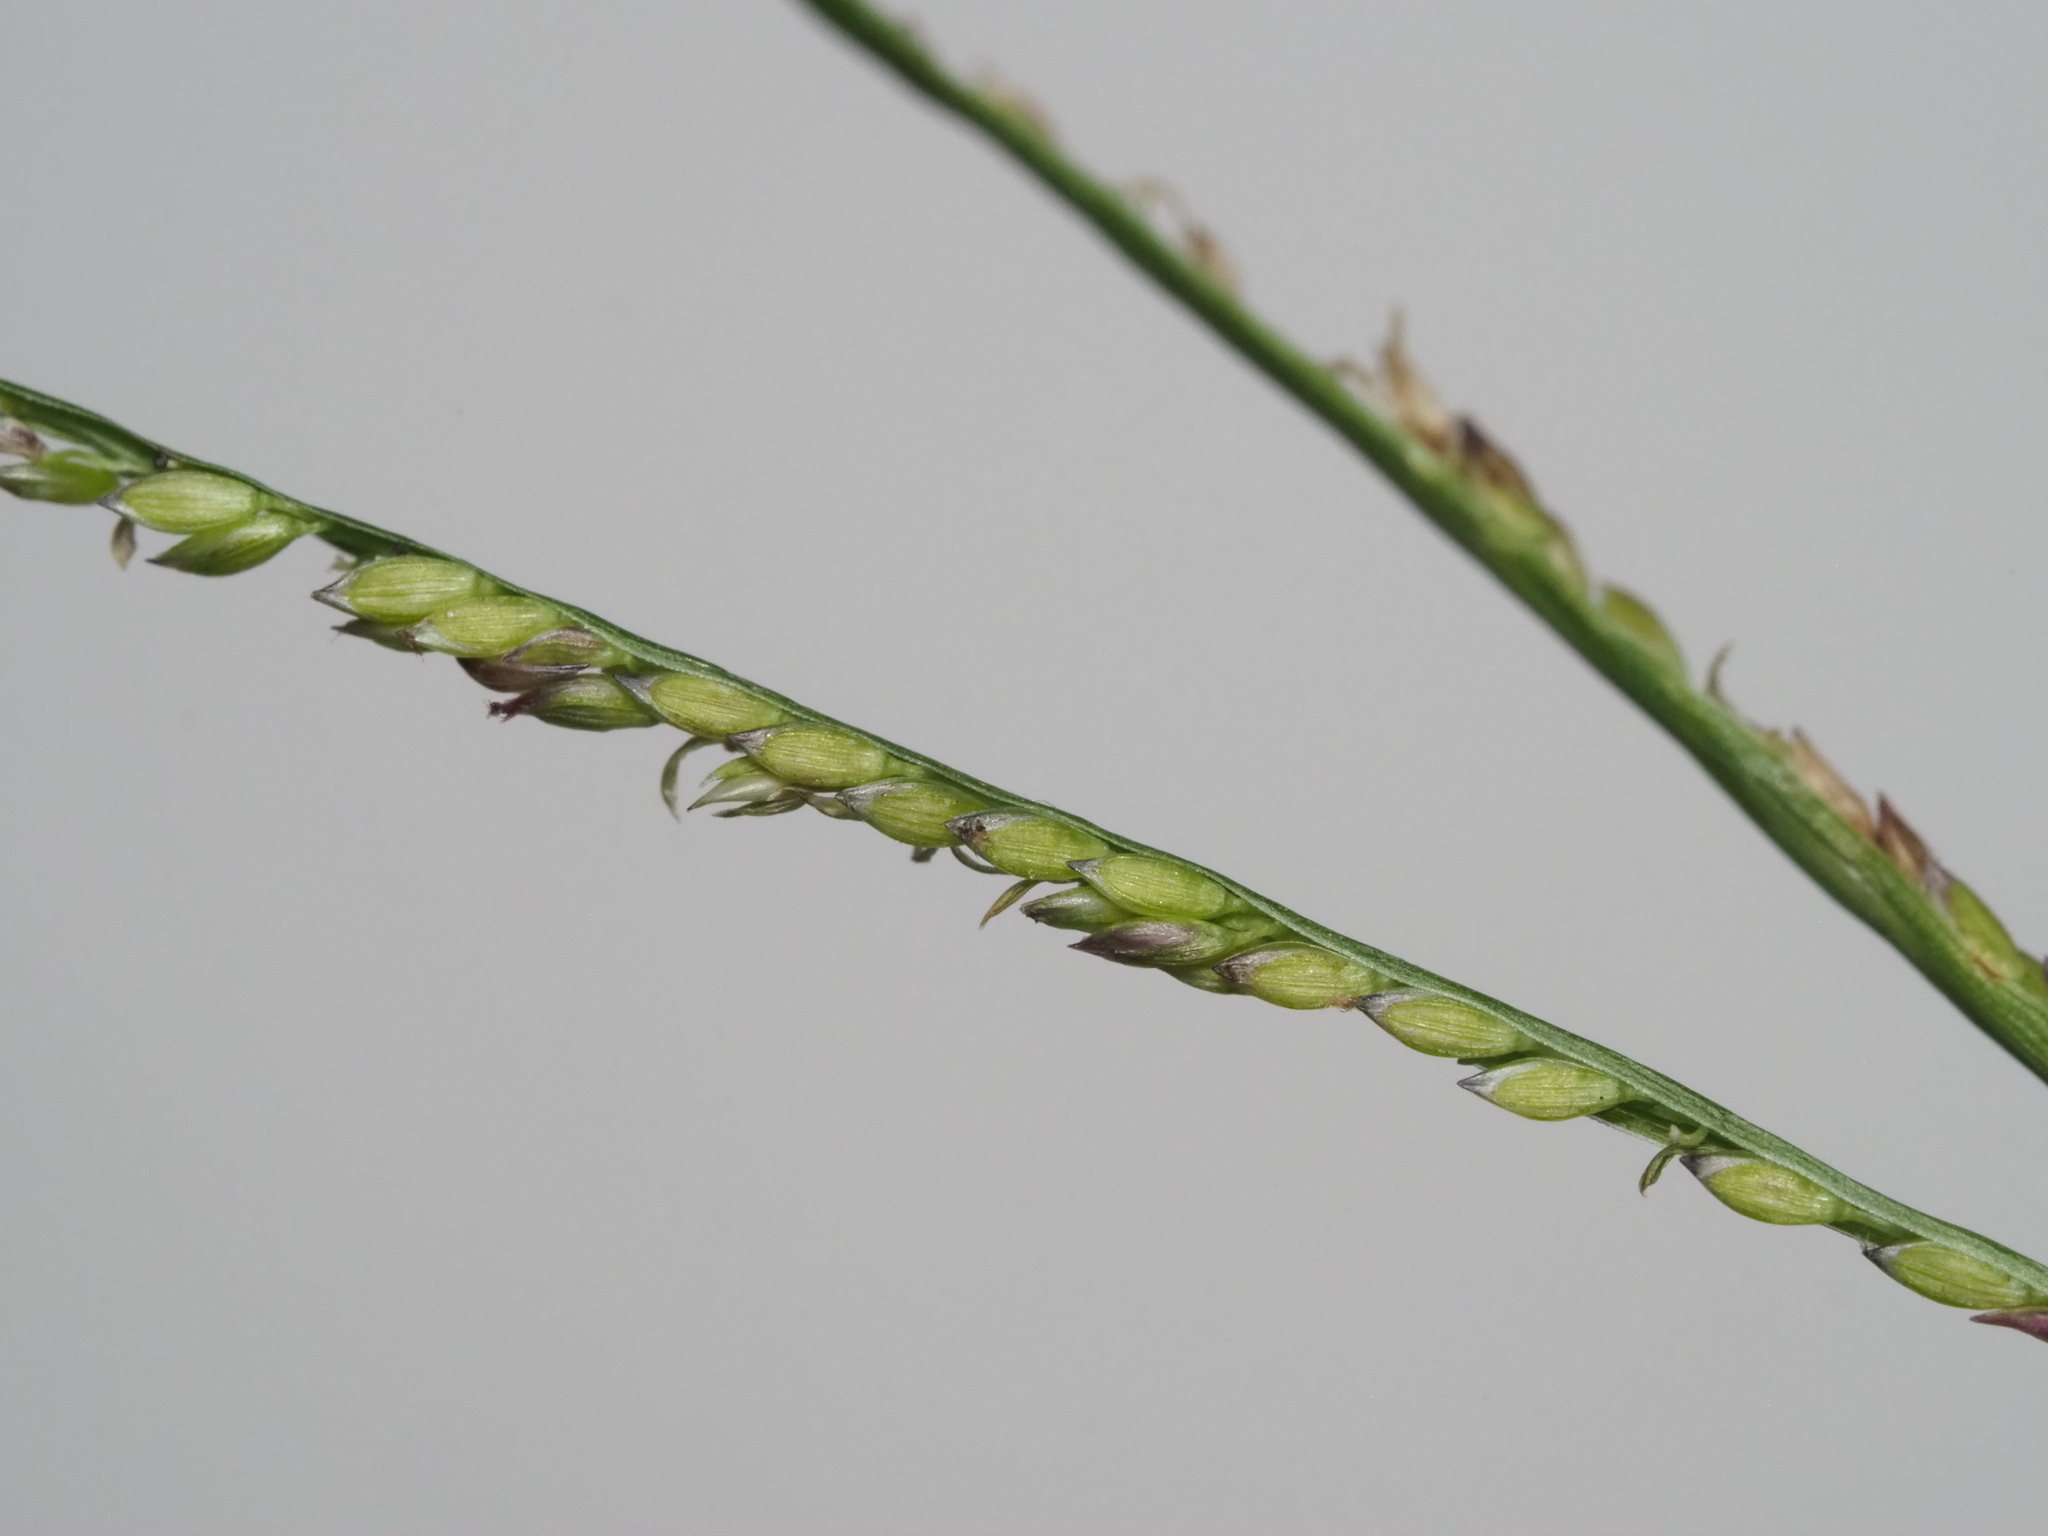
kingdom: Plantae
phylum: Tracheophyta
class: Liliopsida
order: Poales
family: Poaceae
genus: Digitaria
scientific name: Digitaria fuscescens
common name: Yellow crabgrass
